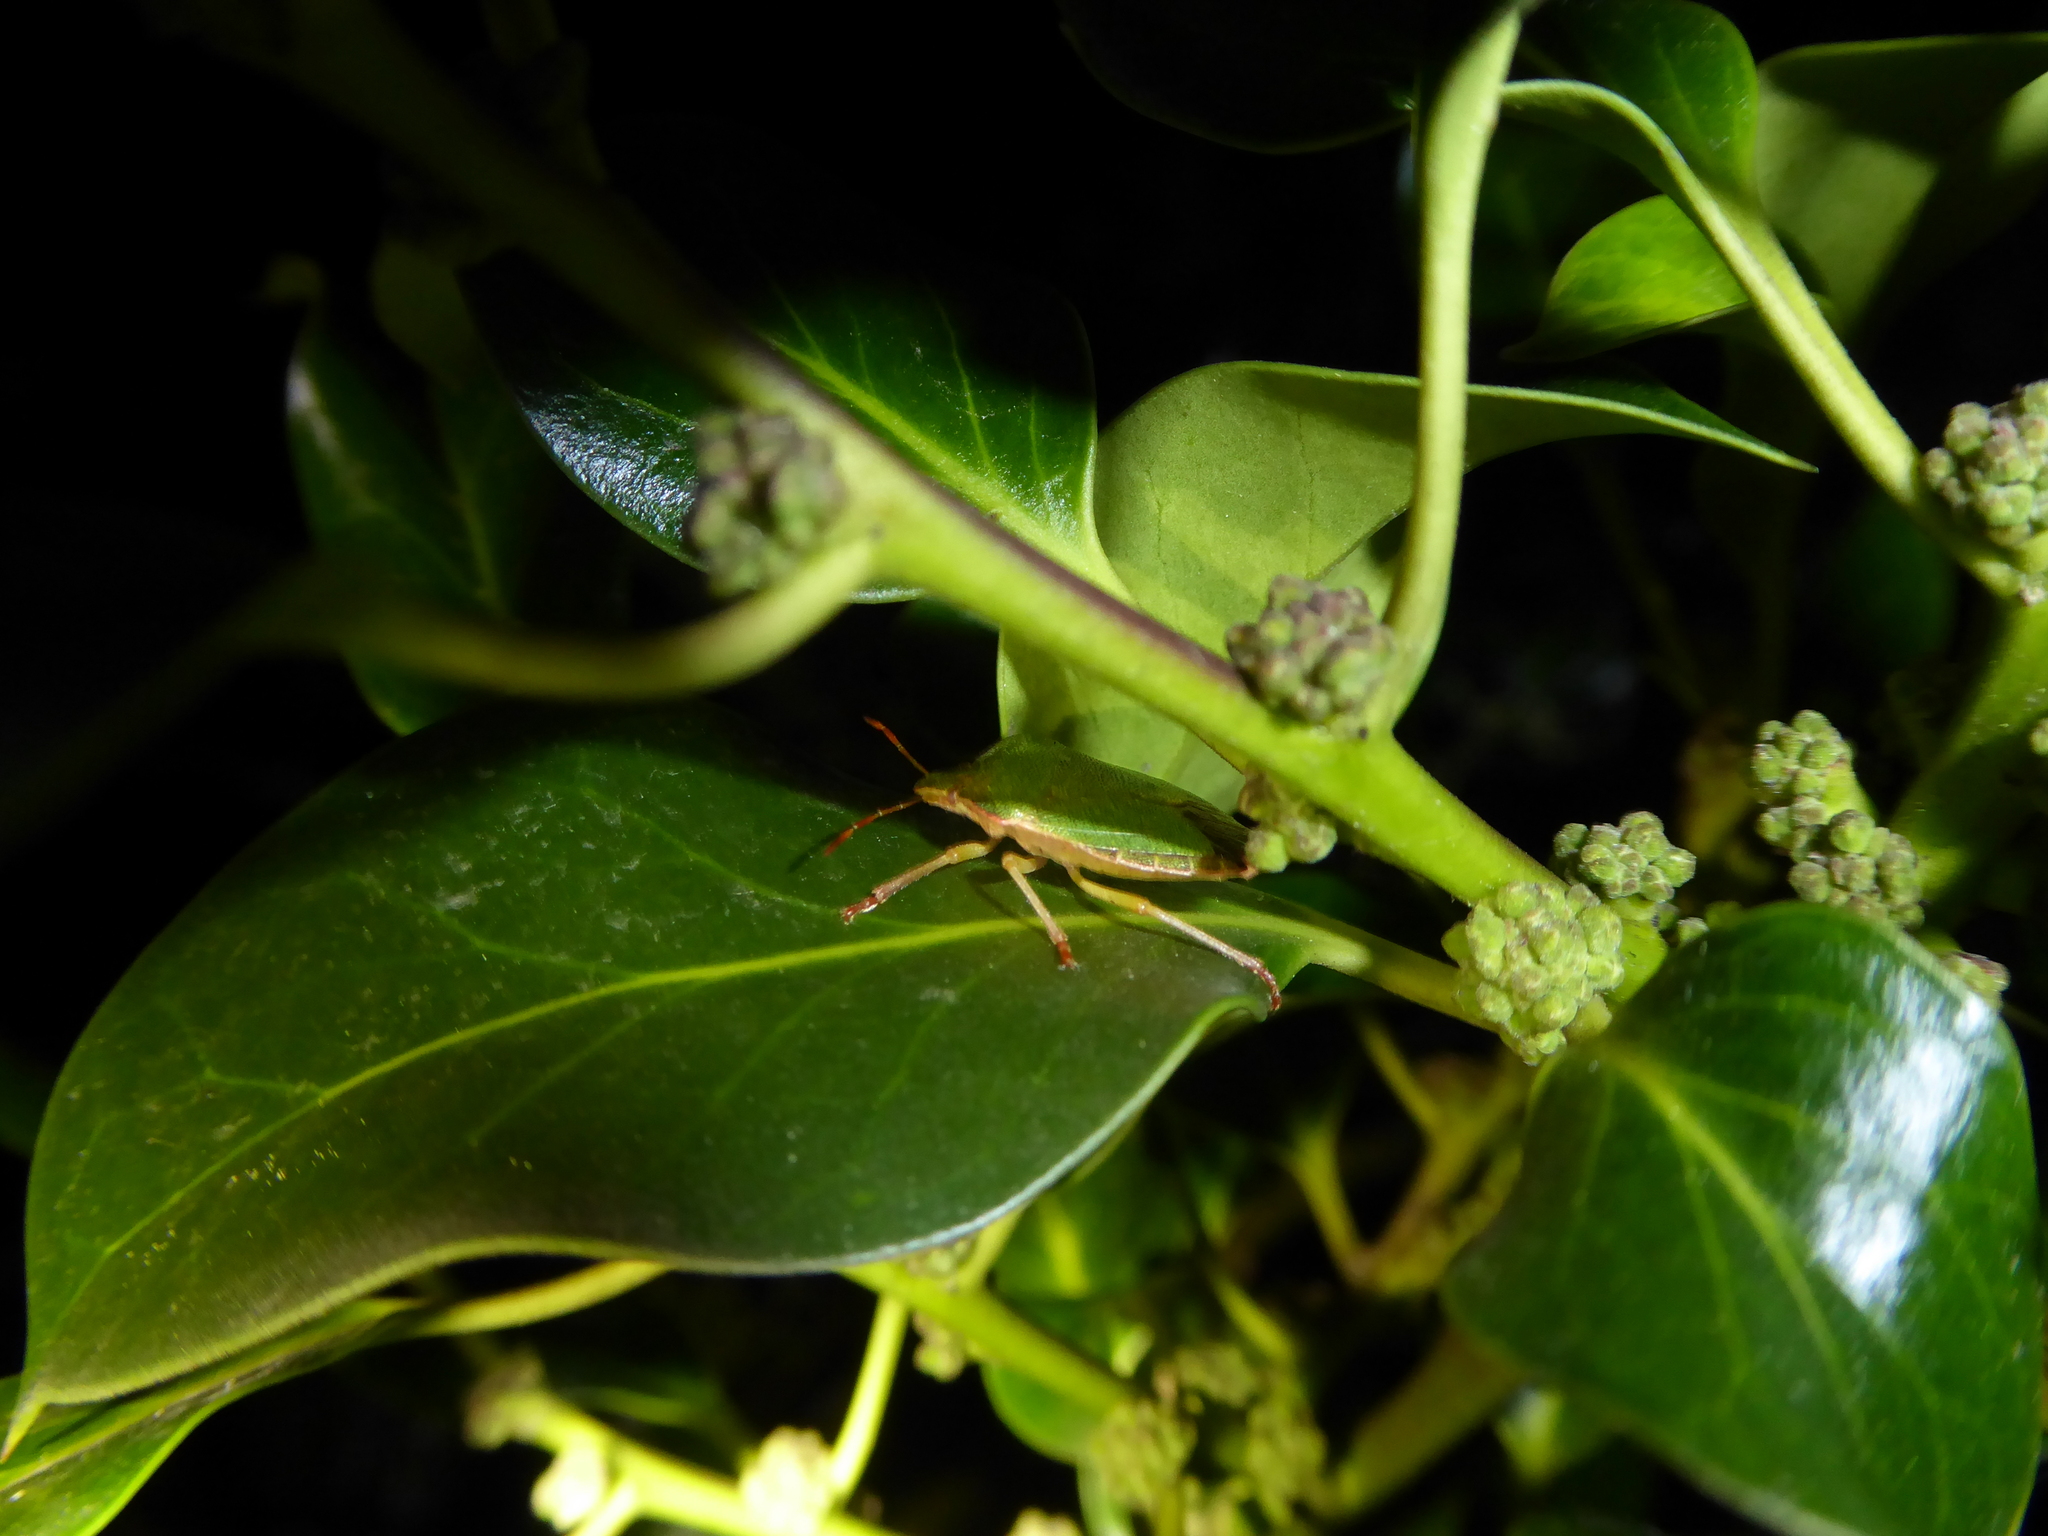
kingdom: Animalia
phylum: Arthropoda
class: Insecta
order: Hemiptera
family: Pentatomidae
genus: Palomena
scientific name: Palomena prasina
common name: Green shieldbug
